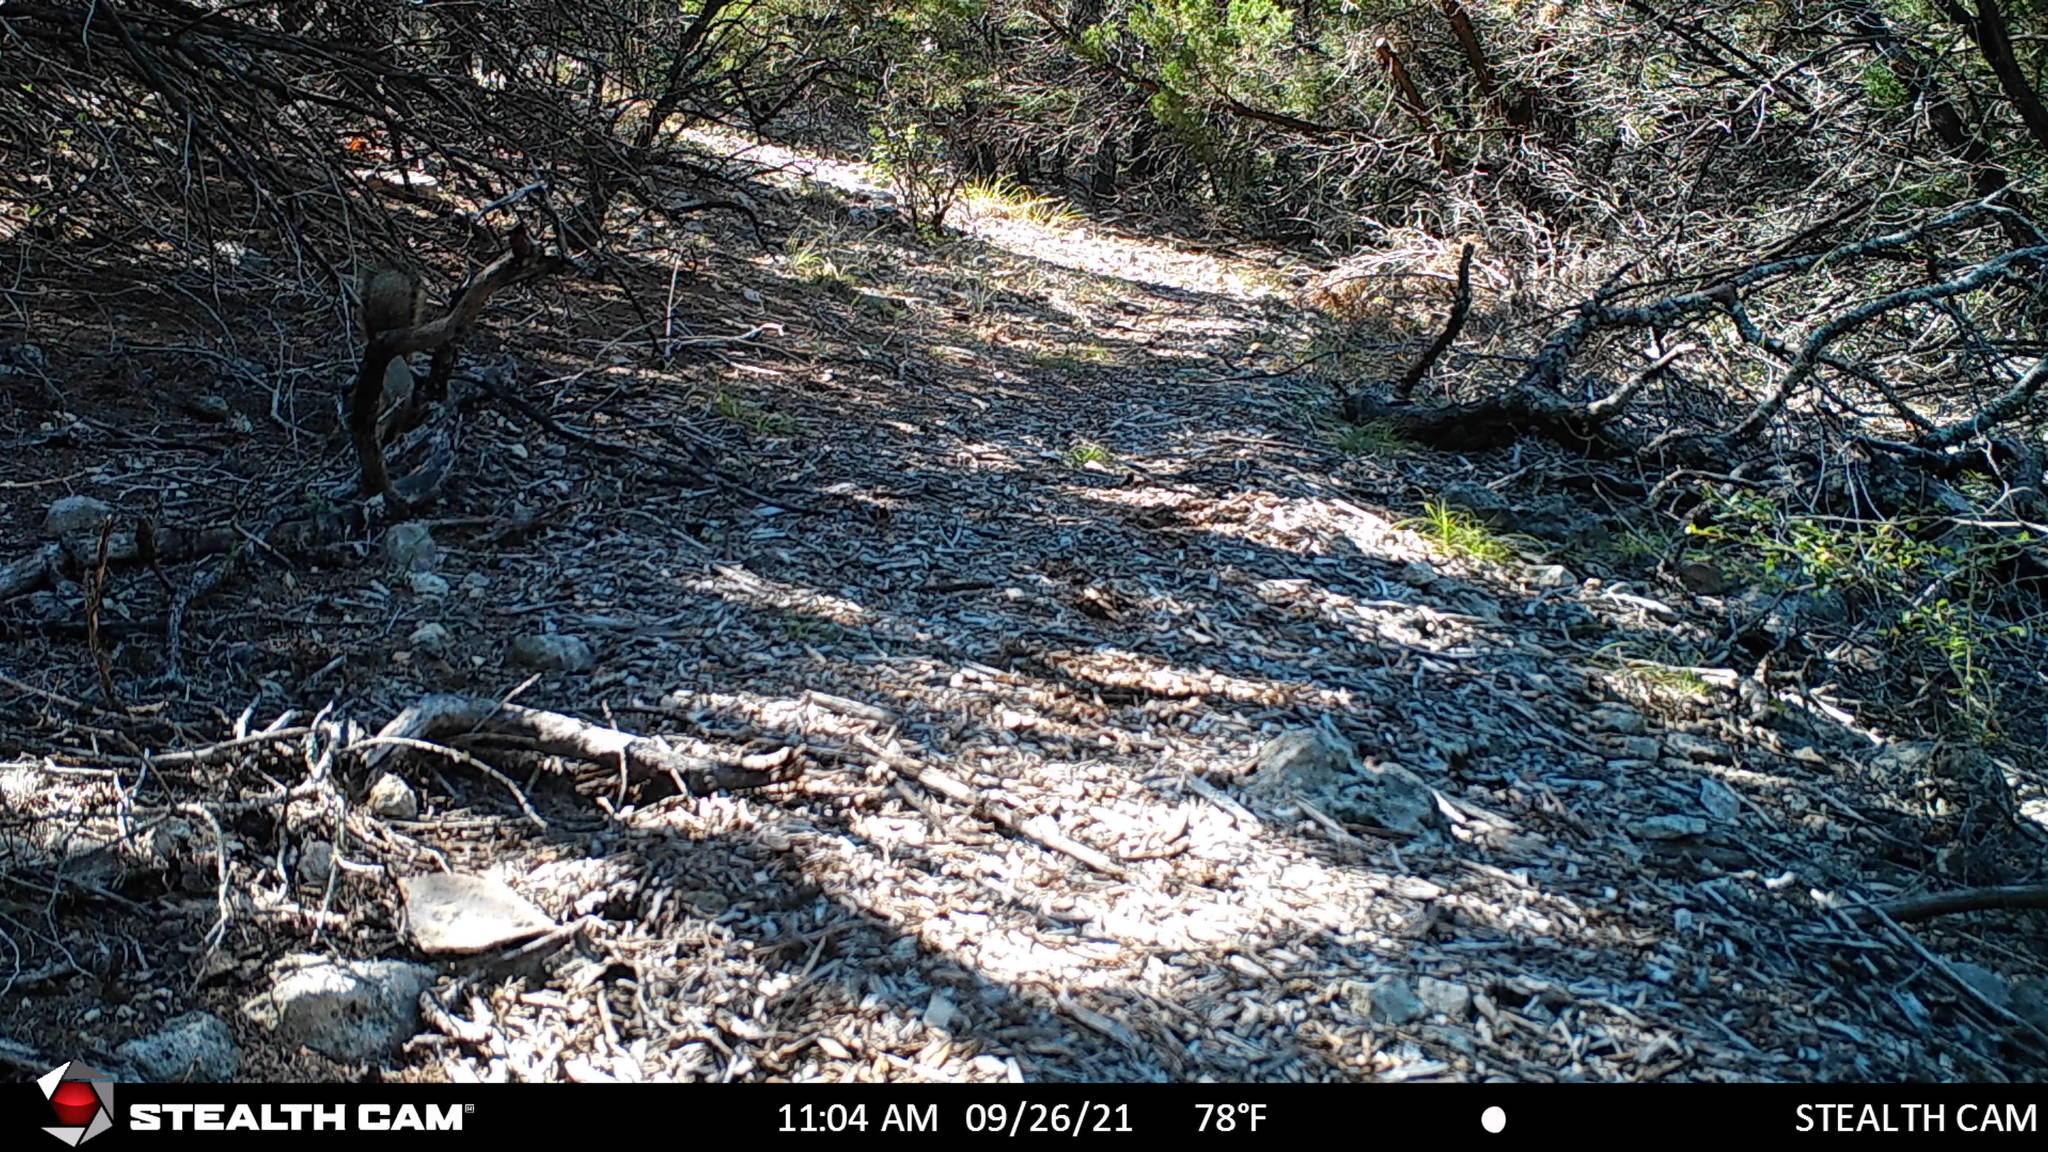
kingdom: Animalia
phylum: Chordata
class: Mammalia
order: Rodentia
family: Sciuridae
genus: Sciurus
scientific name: Sciurus niger
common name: Fox squirrel
